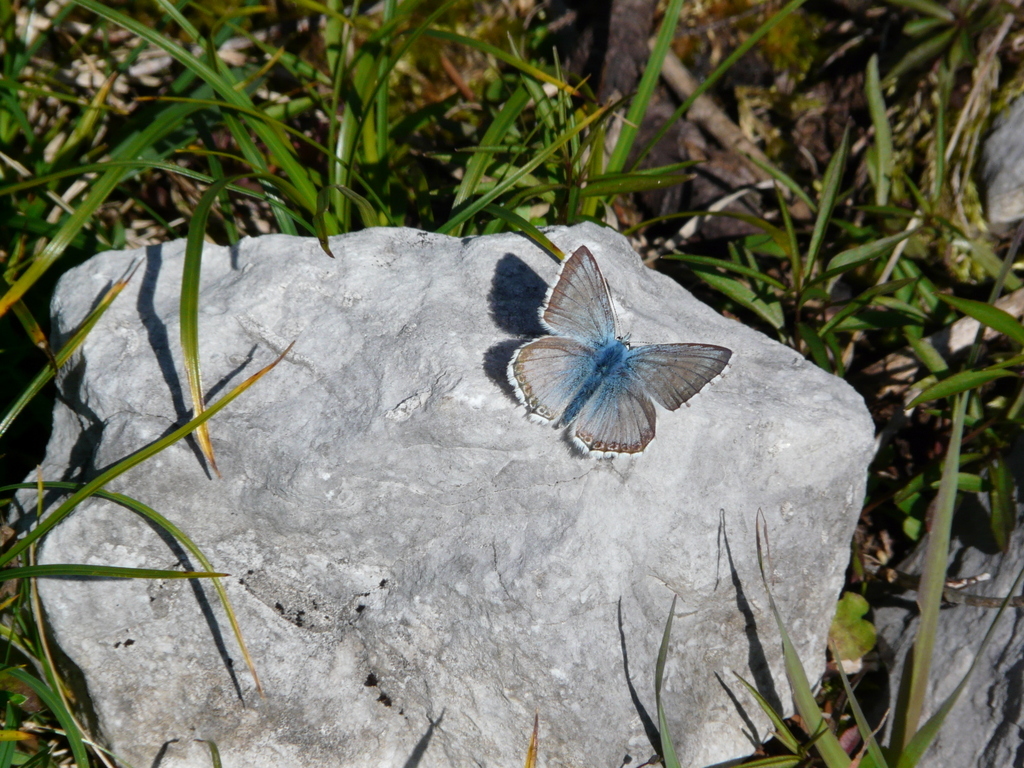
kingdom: Animalia
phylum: Arthropoda
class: Insecta
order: Lepidoptera
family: Lycaenidae
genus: Lysandra
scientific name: Lysandra coridon
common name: Chalkhill blue
